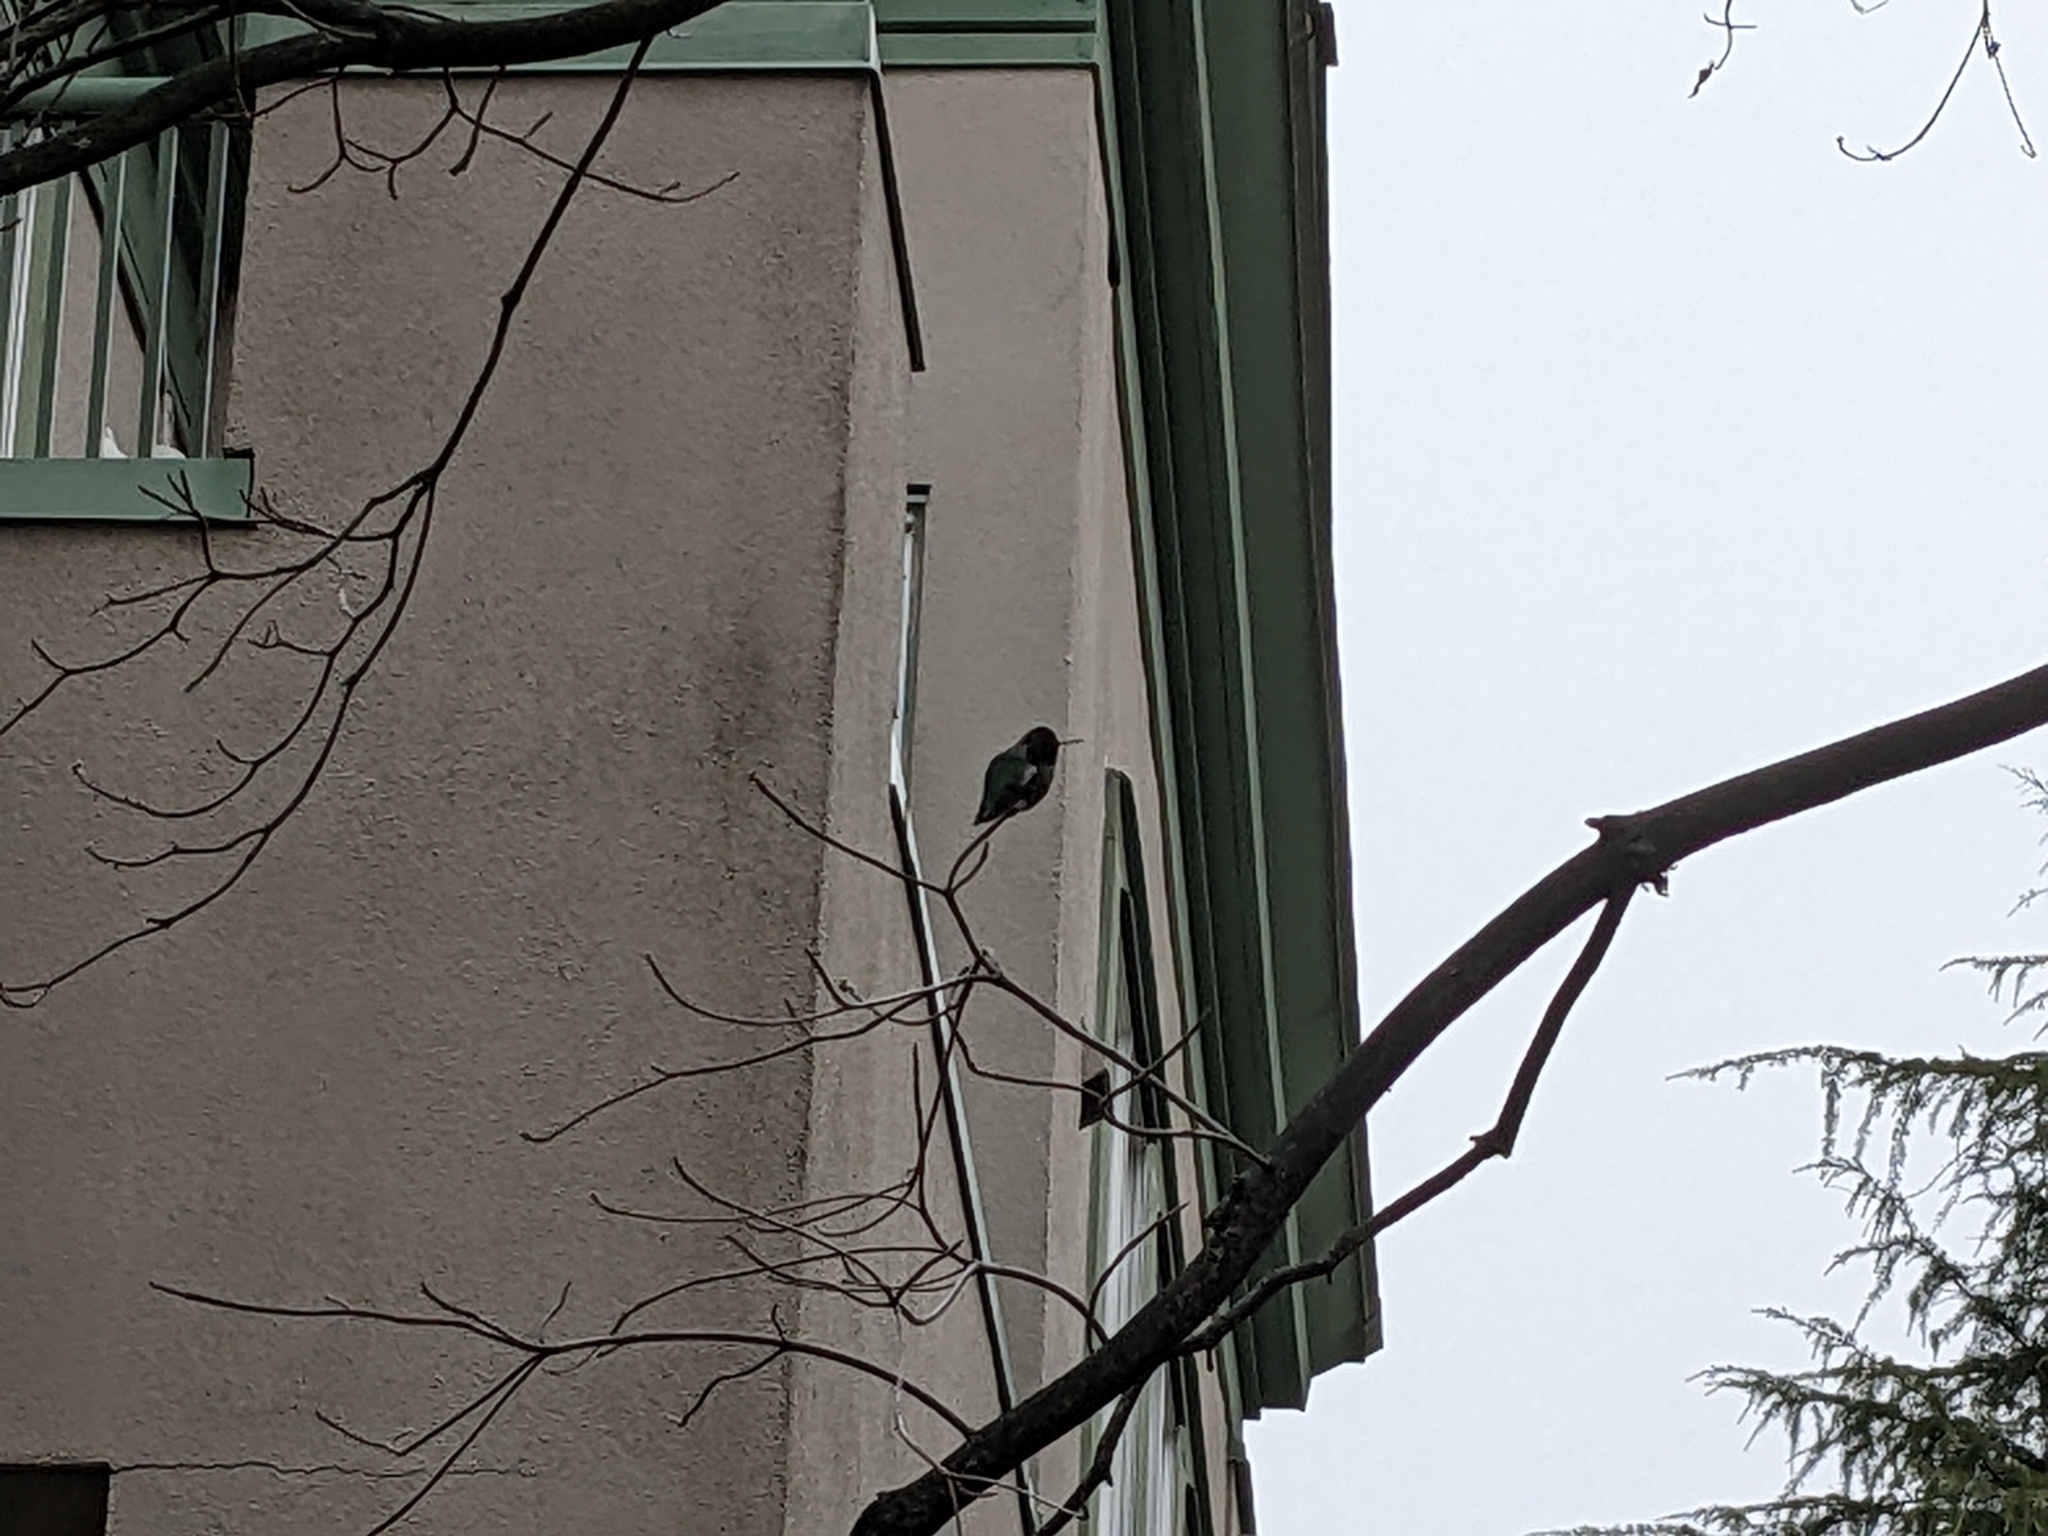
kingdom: Animalia
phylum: Chordata
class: Aves
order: Apodiformes
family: Trochilidae
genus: Calypte
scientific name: Calypte anna
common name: Anna's hummingbird
